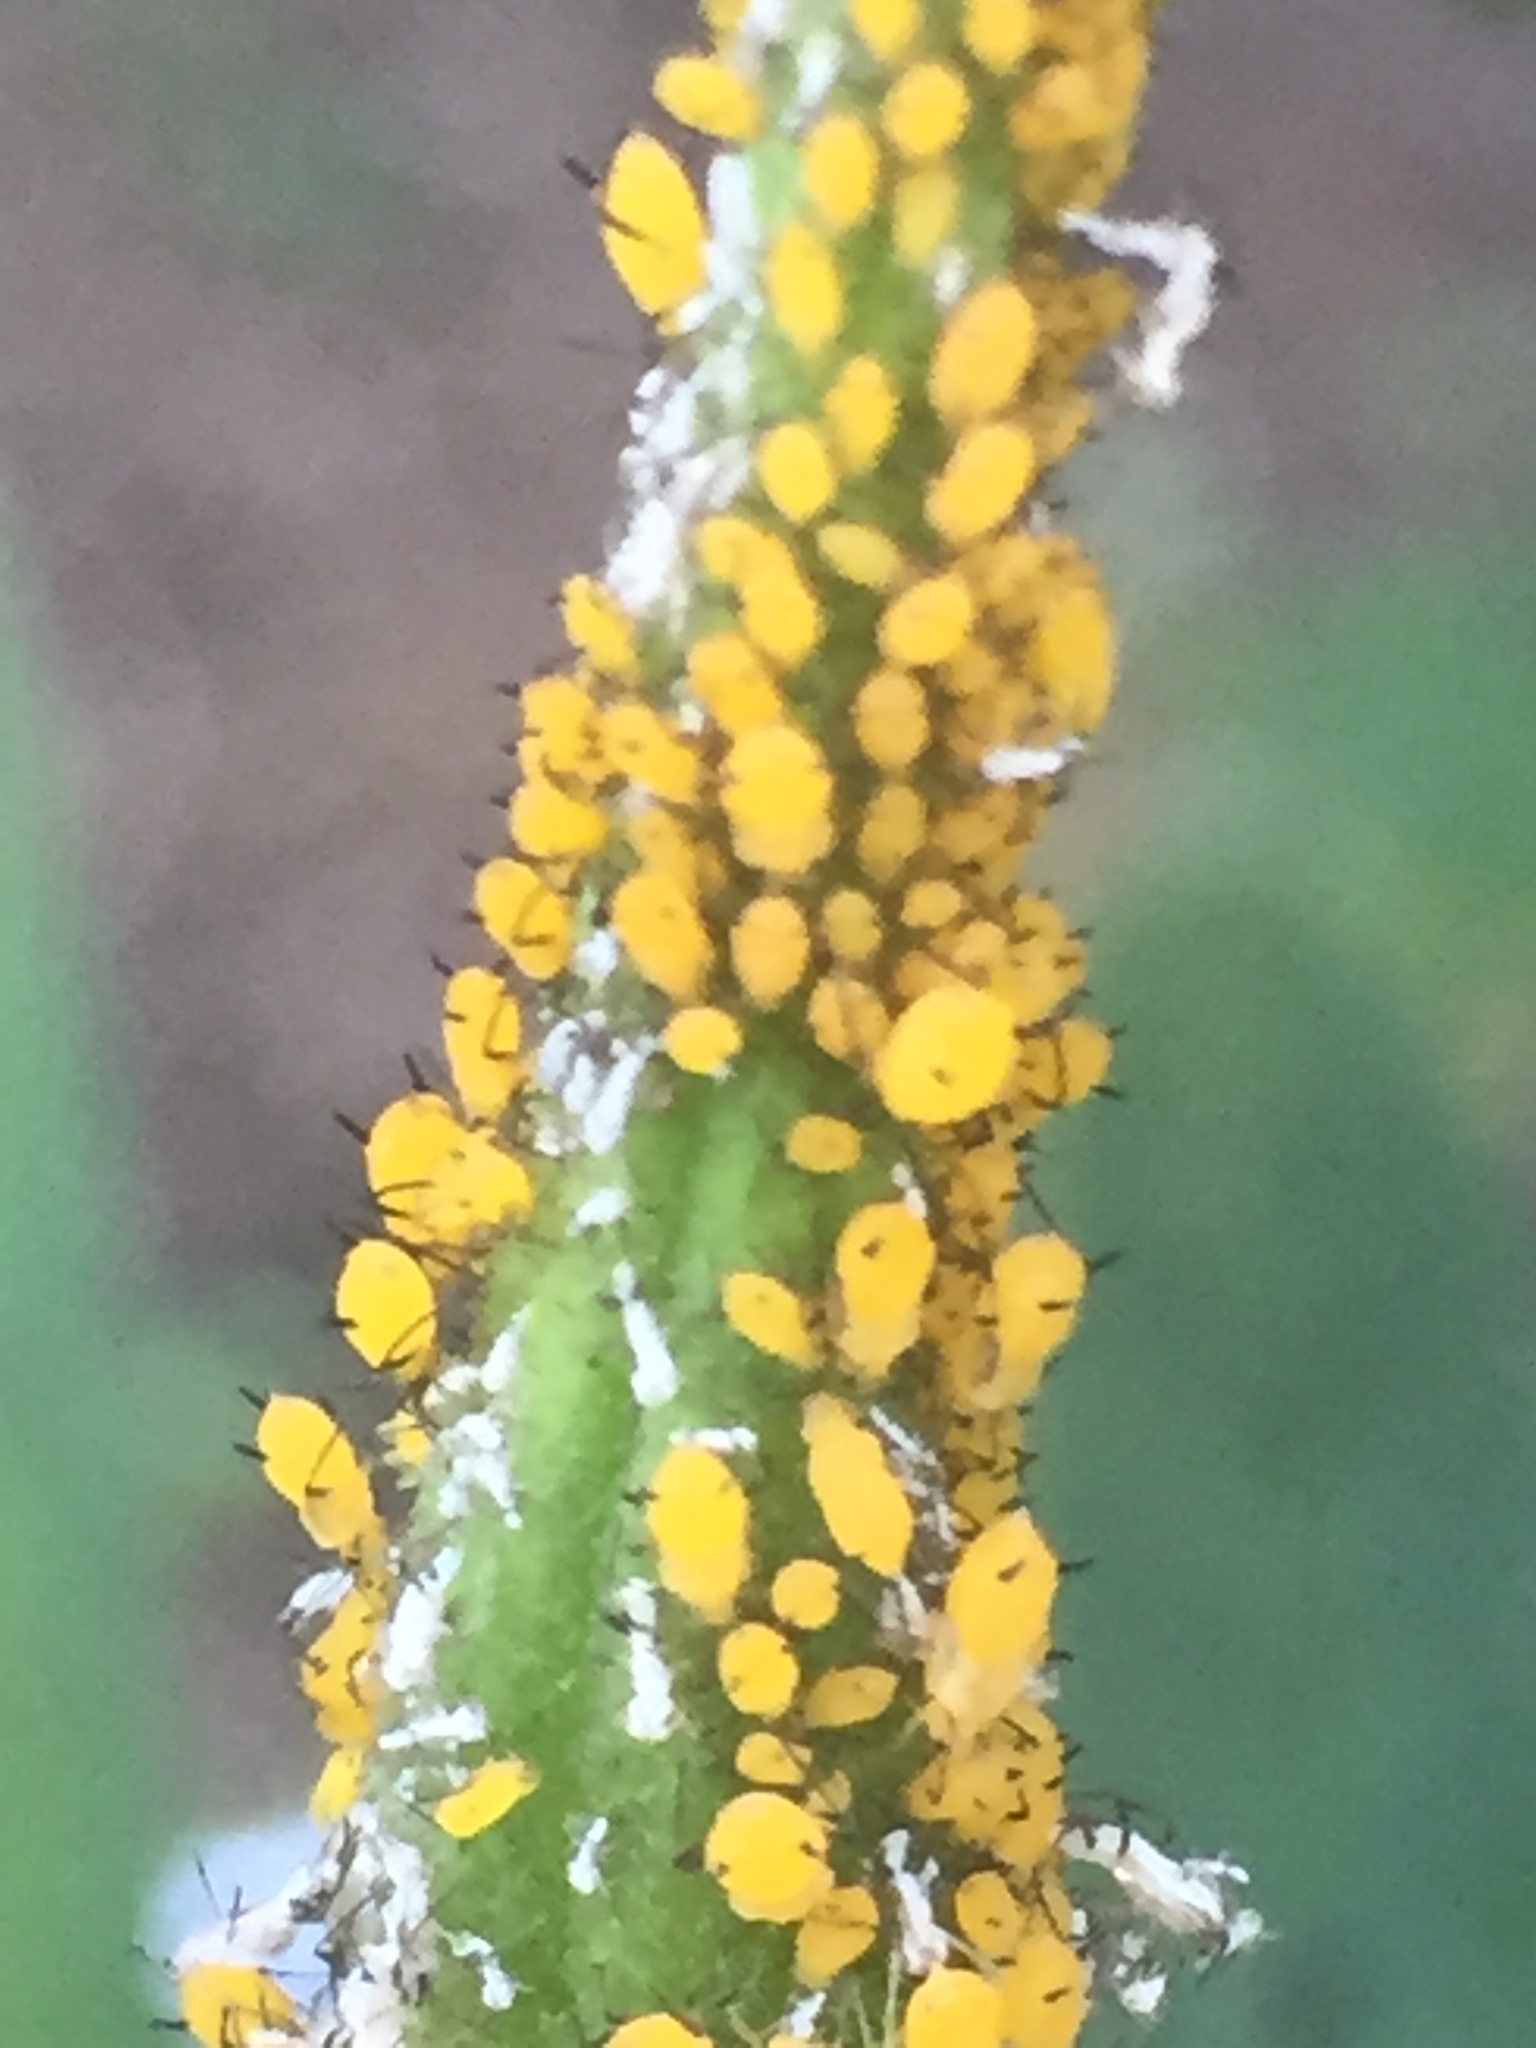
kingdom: Animalia
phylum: Arthropoda
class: Insecta
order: Hemiptera
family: Aphididae
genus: Aphis
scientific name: Aphis nerii
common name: Oleander aphid
